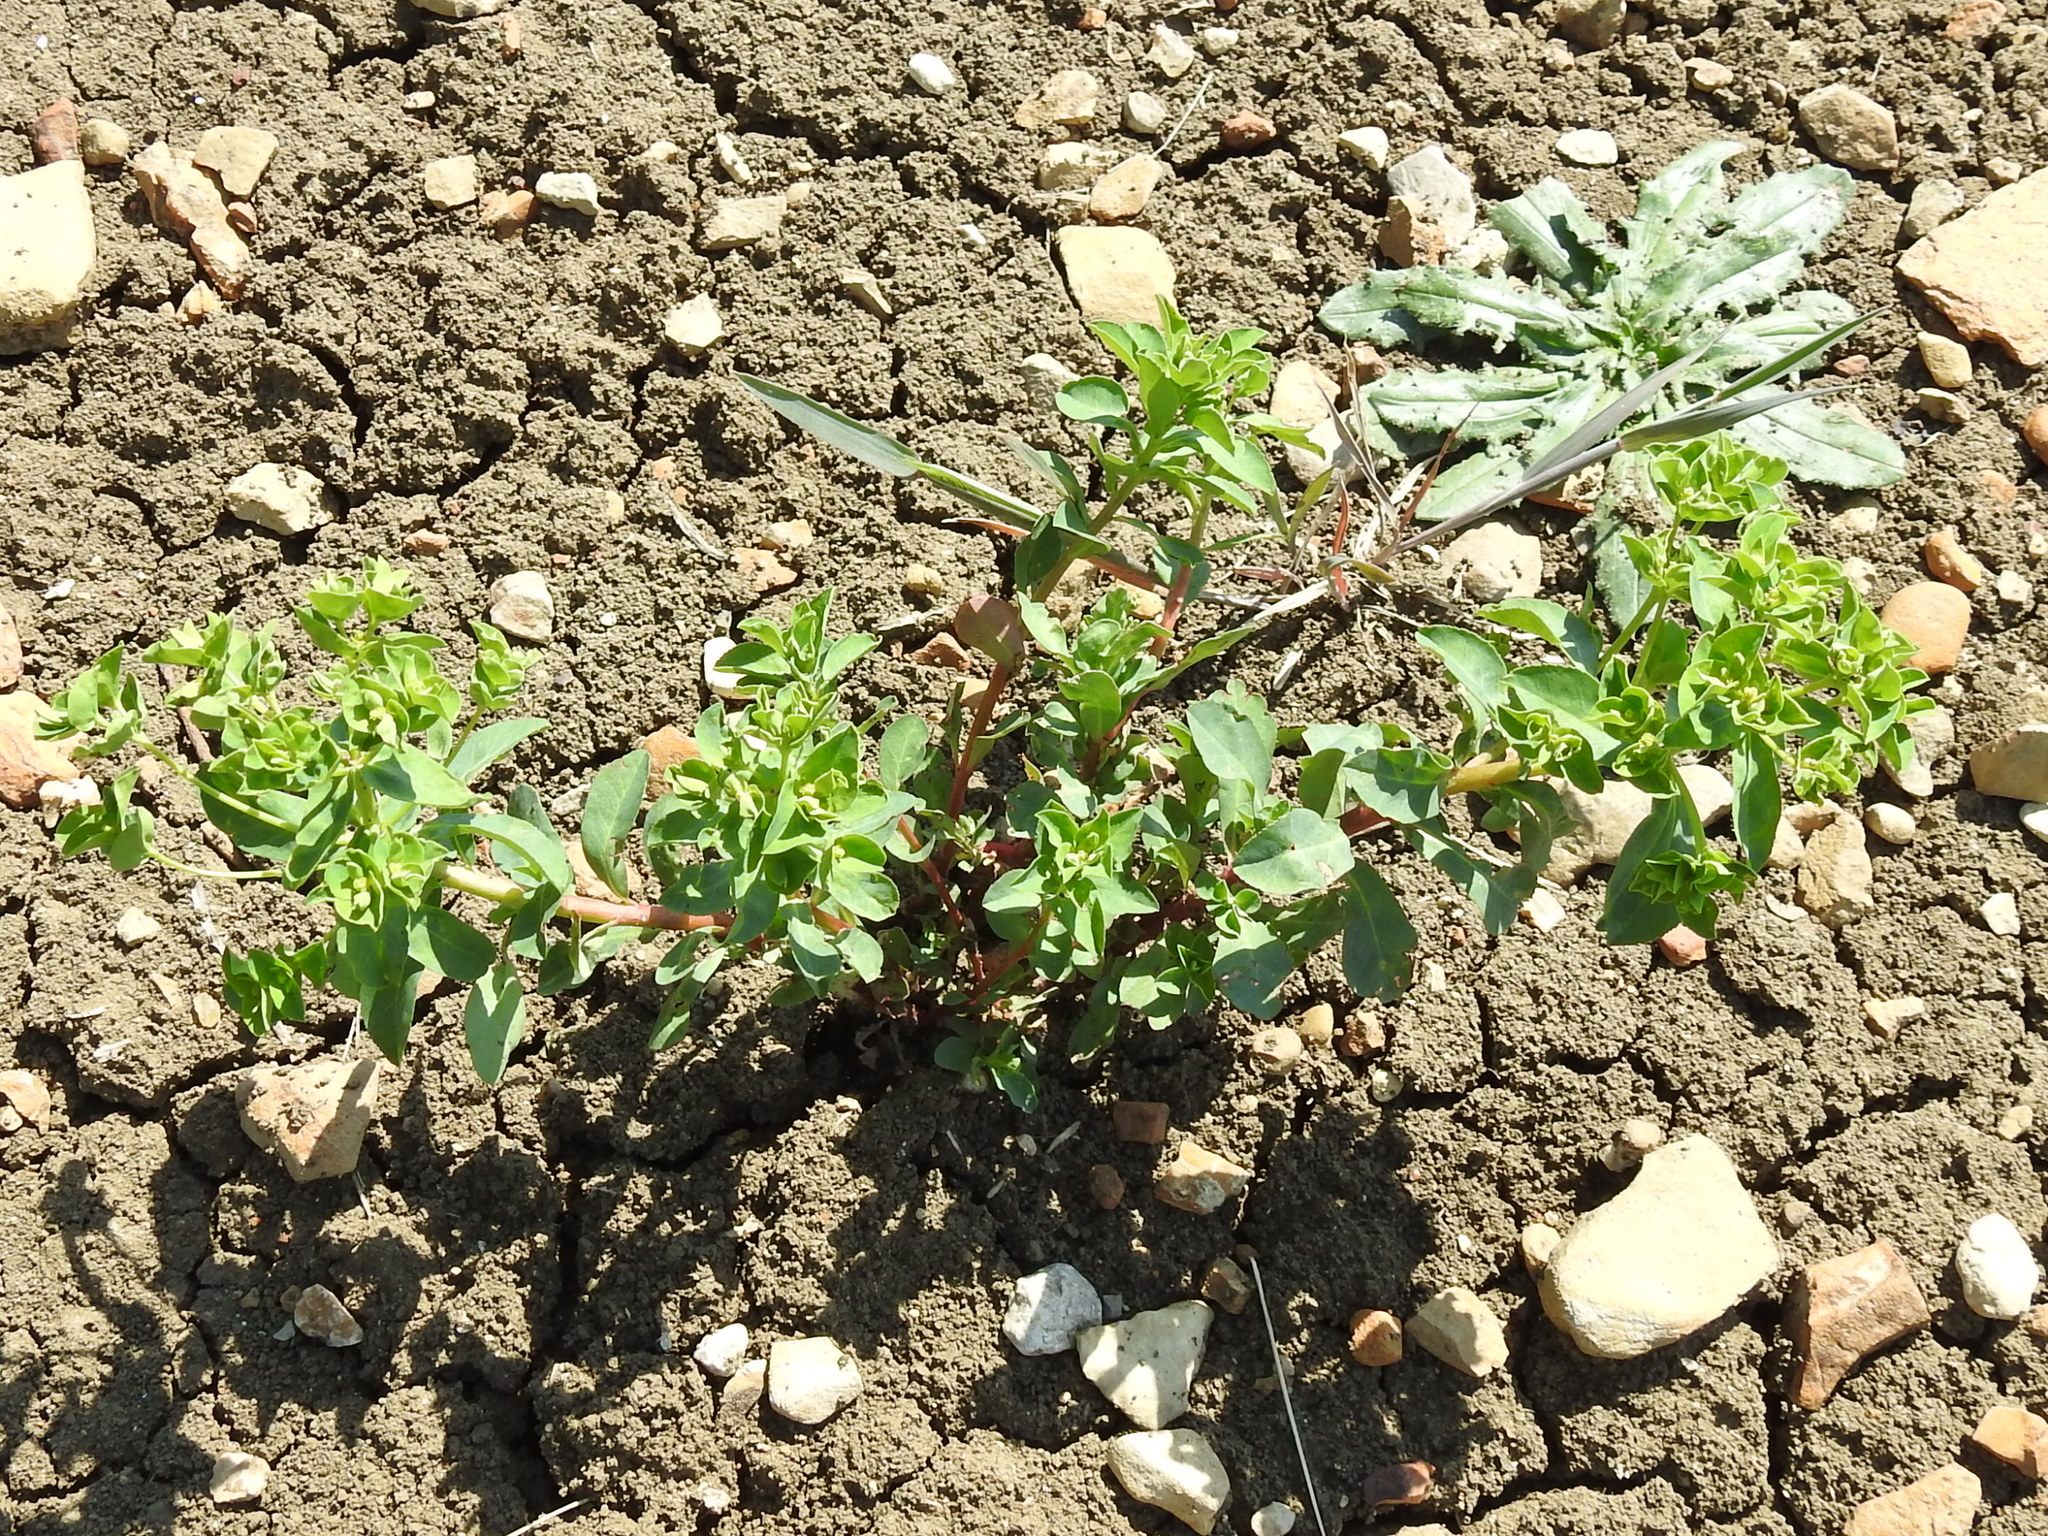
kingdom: Plantae
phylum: Tracheophyta
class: Magnoliopsida
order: Malpighiales
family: Euphorbiaceae
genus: Euphorbia
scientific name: Euphorbia spathulata
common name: Blunt spurge
